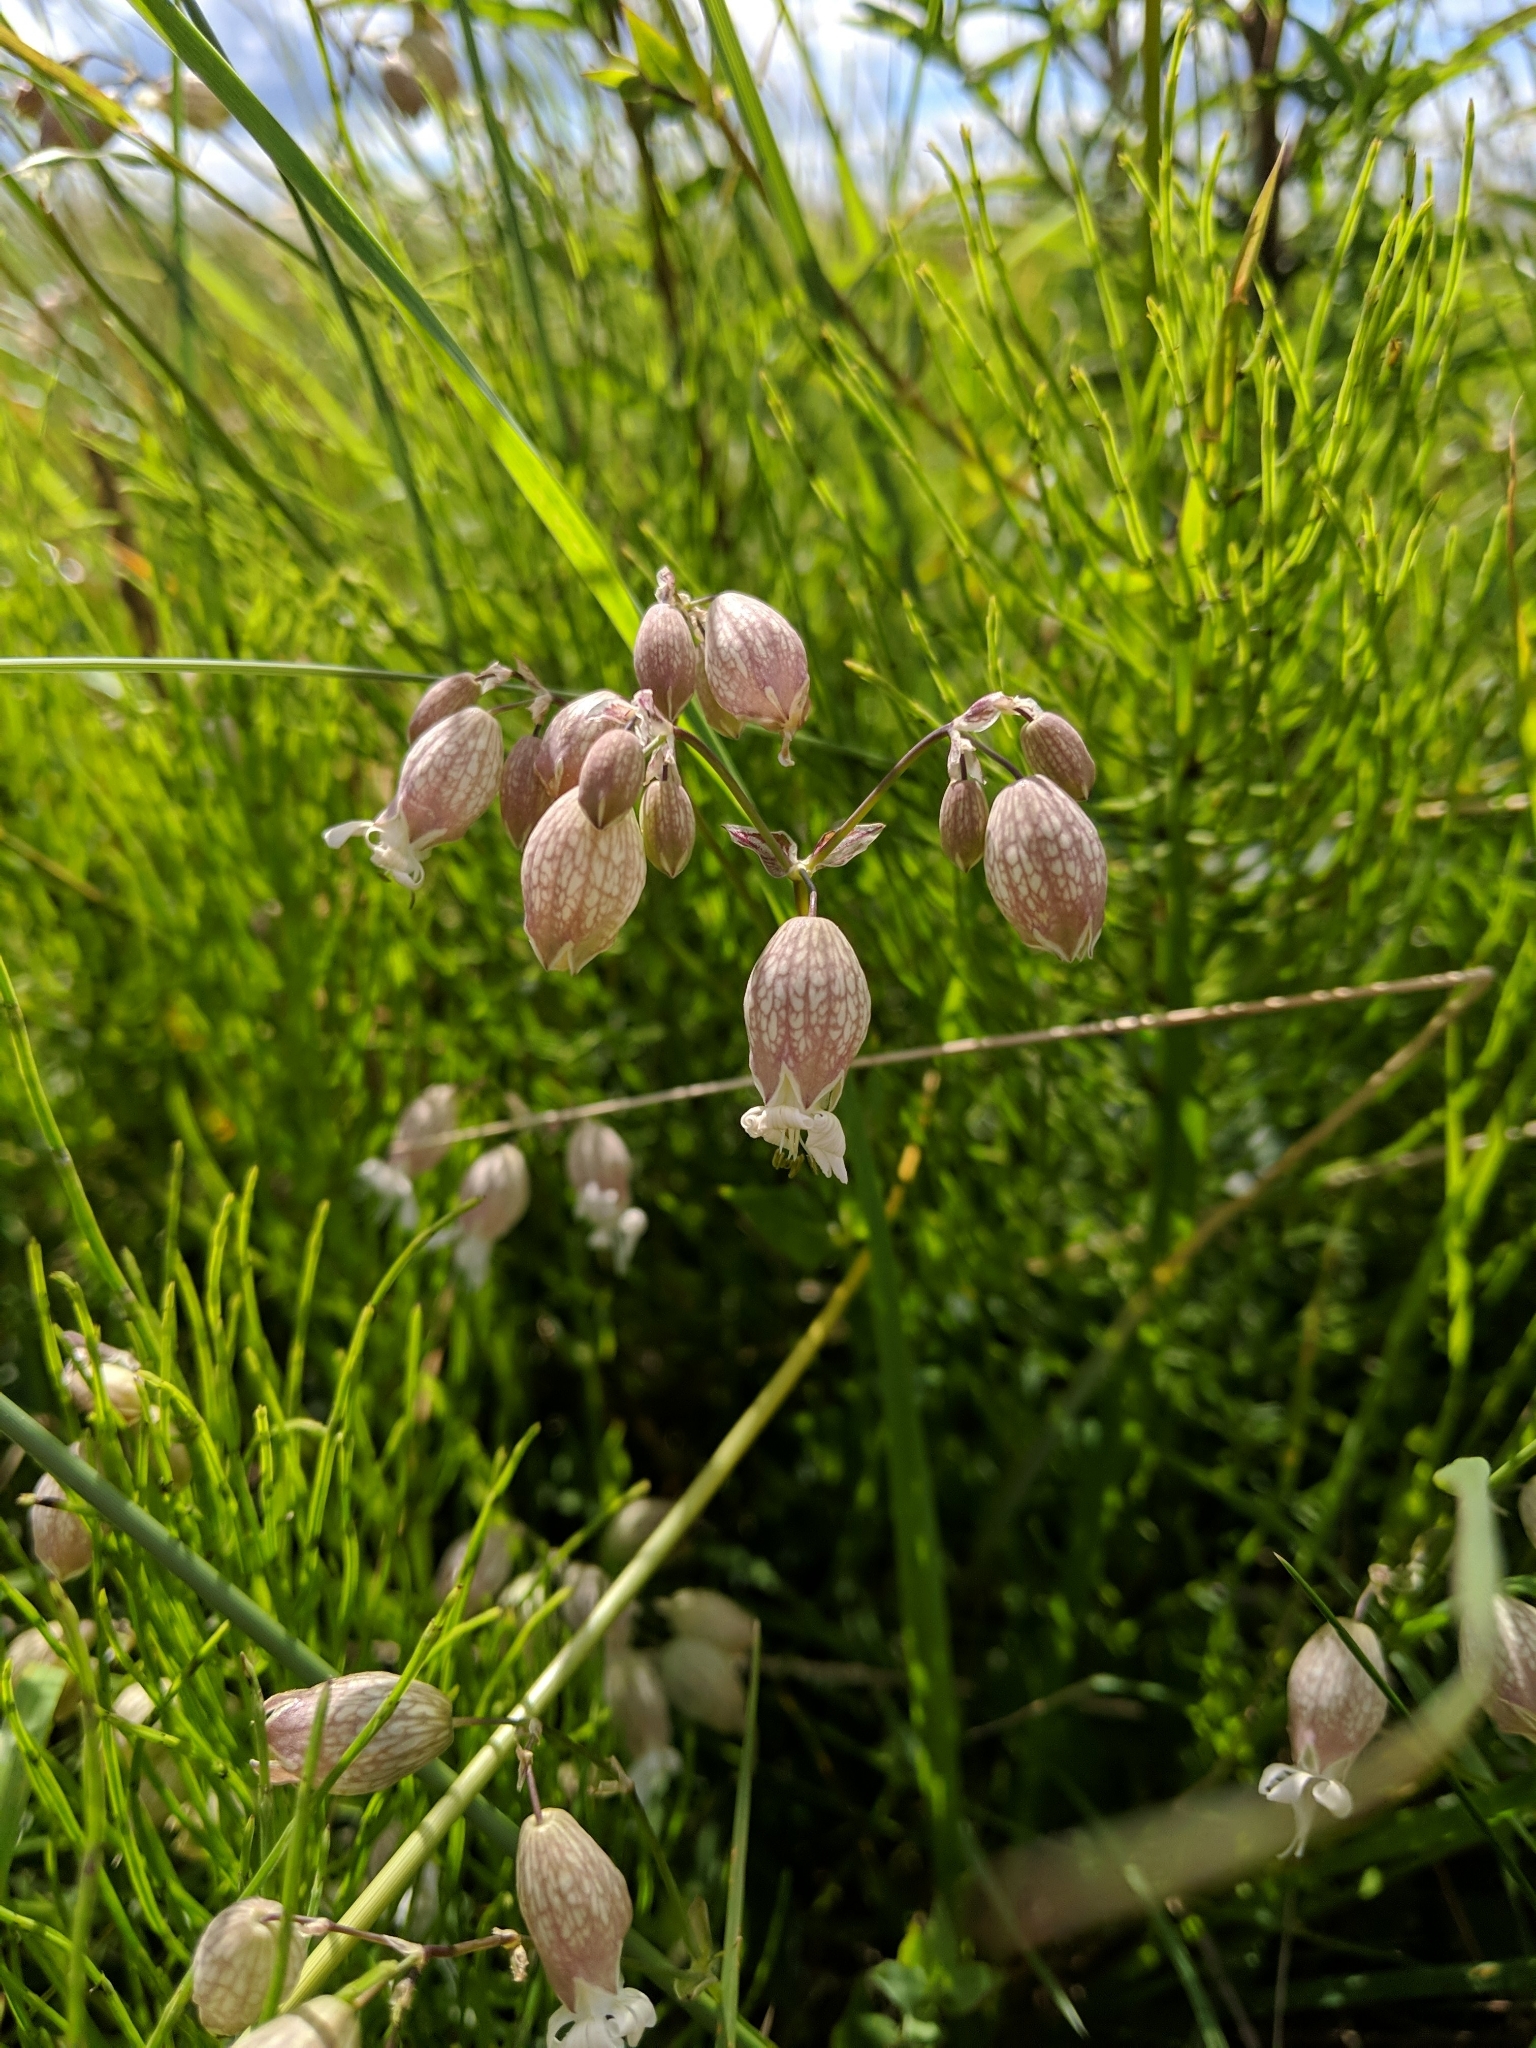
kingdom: Plantae
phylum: Tracheophyta
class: Magnoliopsida
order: Caryophyllales
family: Caryophyllaceae
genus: Silene
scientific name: Silene vulgaris
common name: Bladder campion
